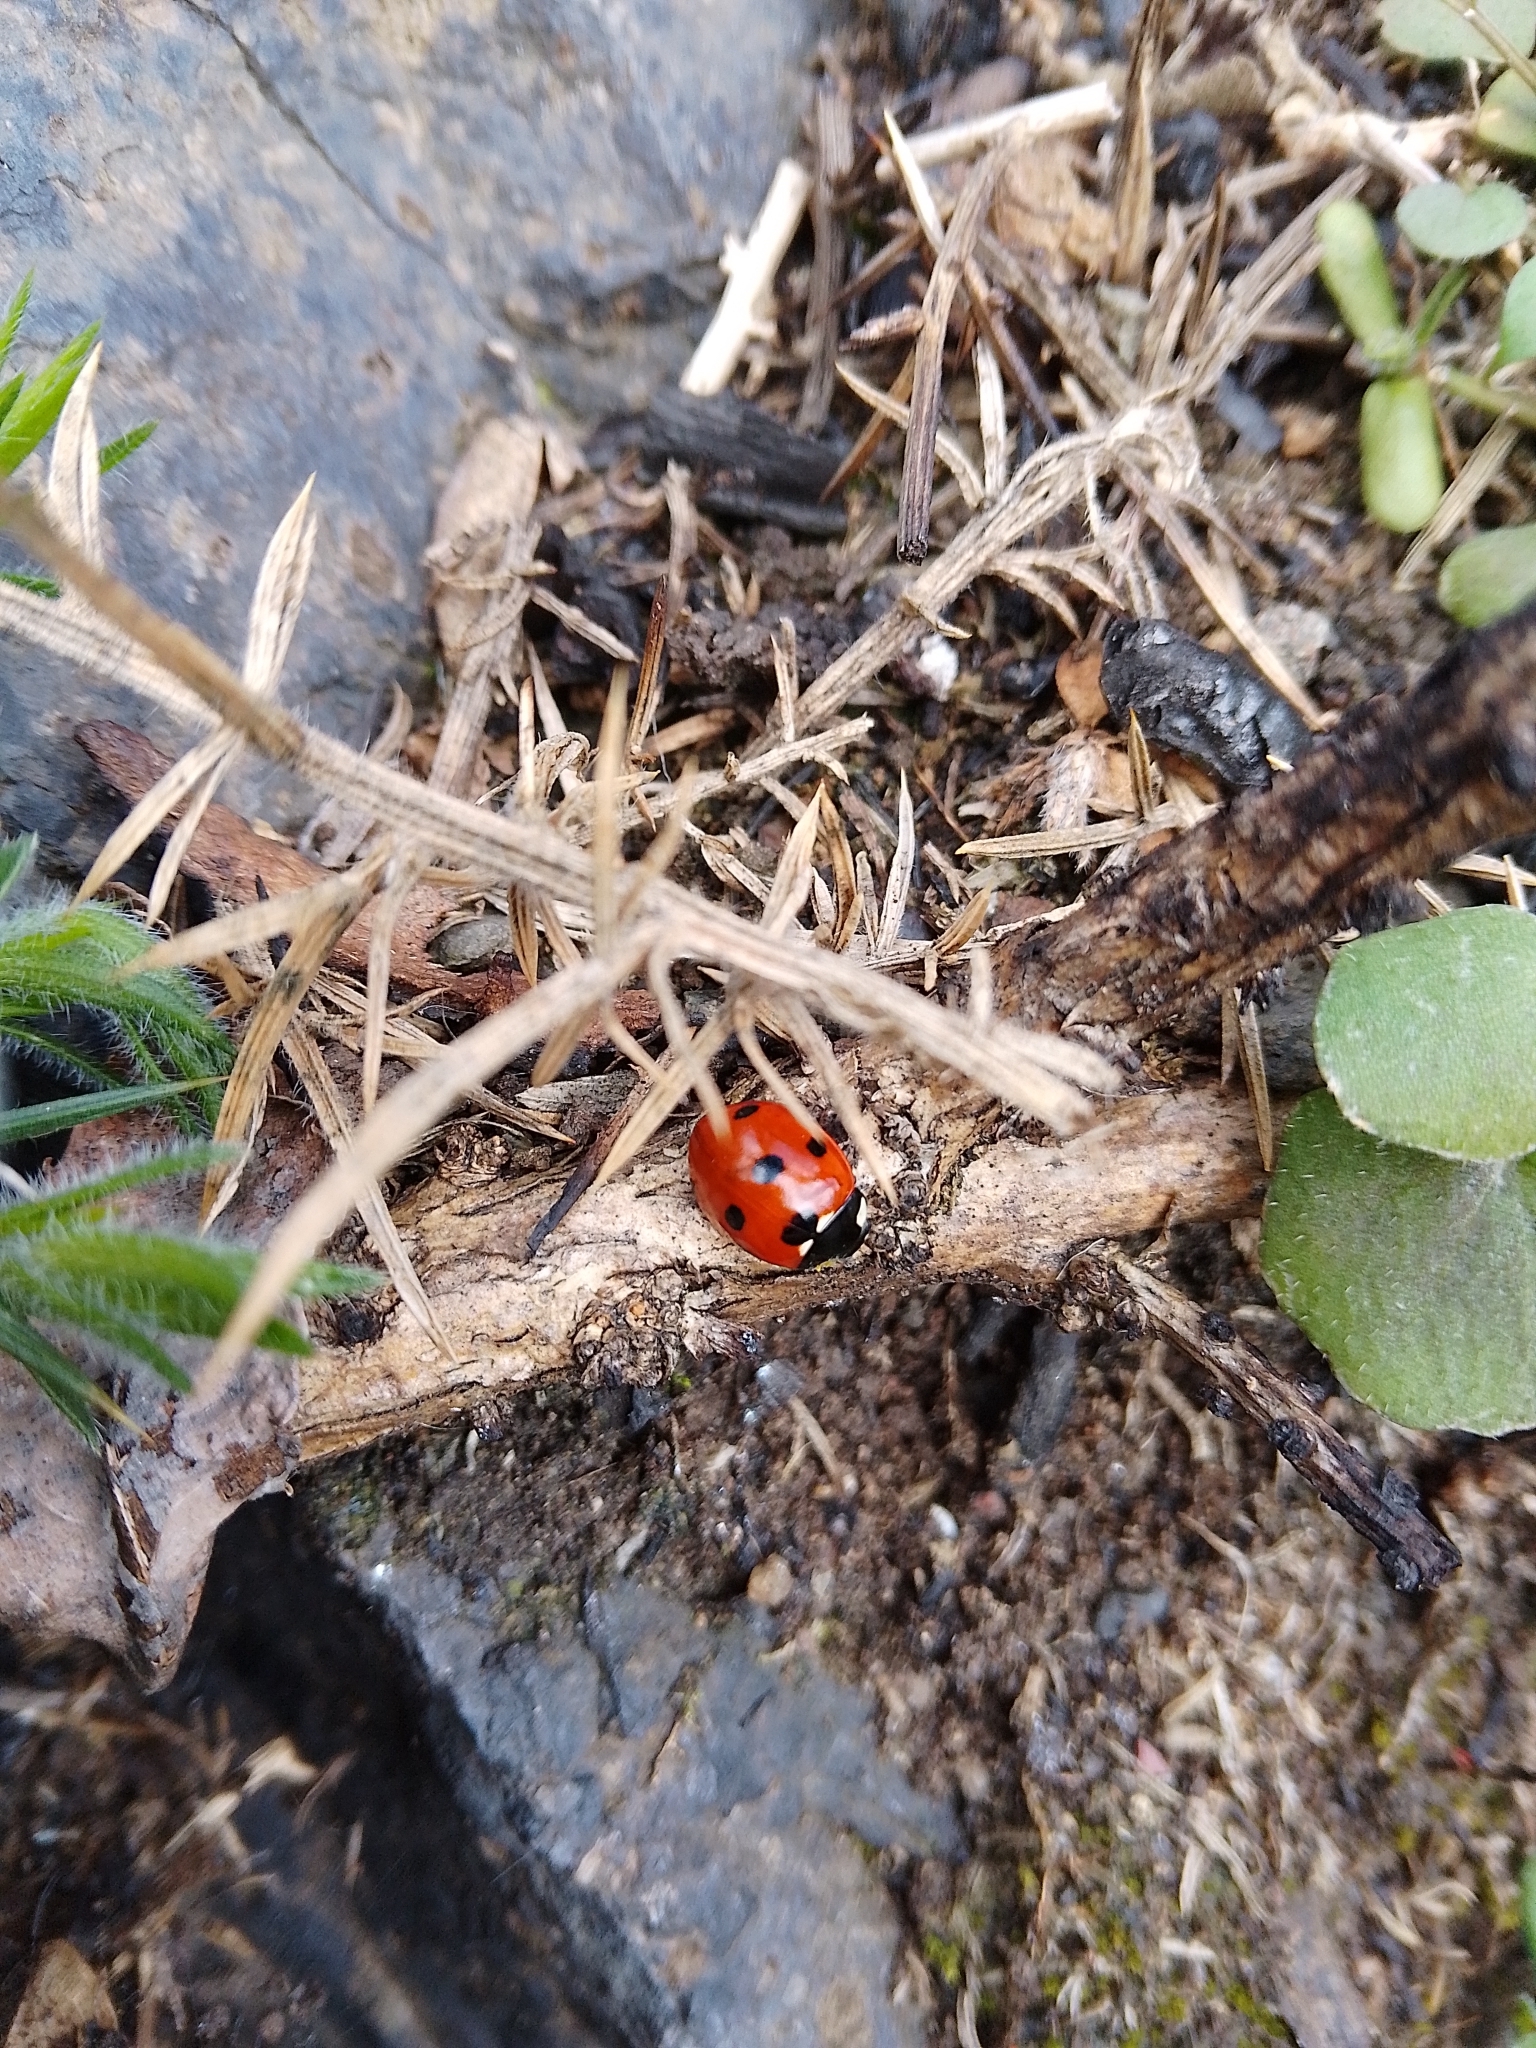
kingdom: Animalia
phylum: Arthropoda
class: Insecta
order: Coleoptera
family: Coccinellidae
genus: Coccinella
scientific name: Coccinella septempunctata
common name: Sevenspotted lady beetle
